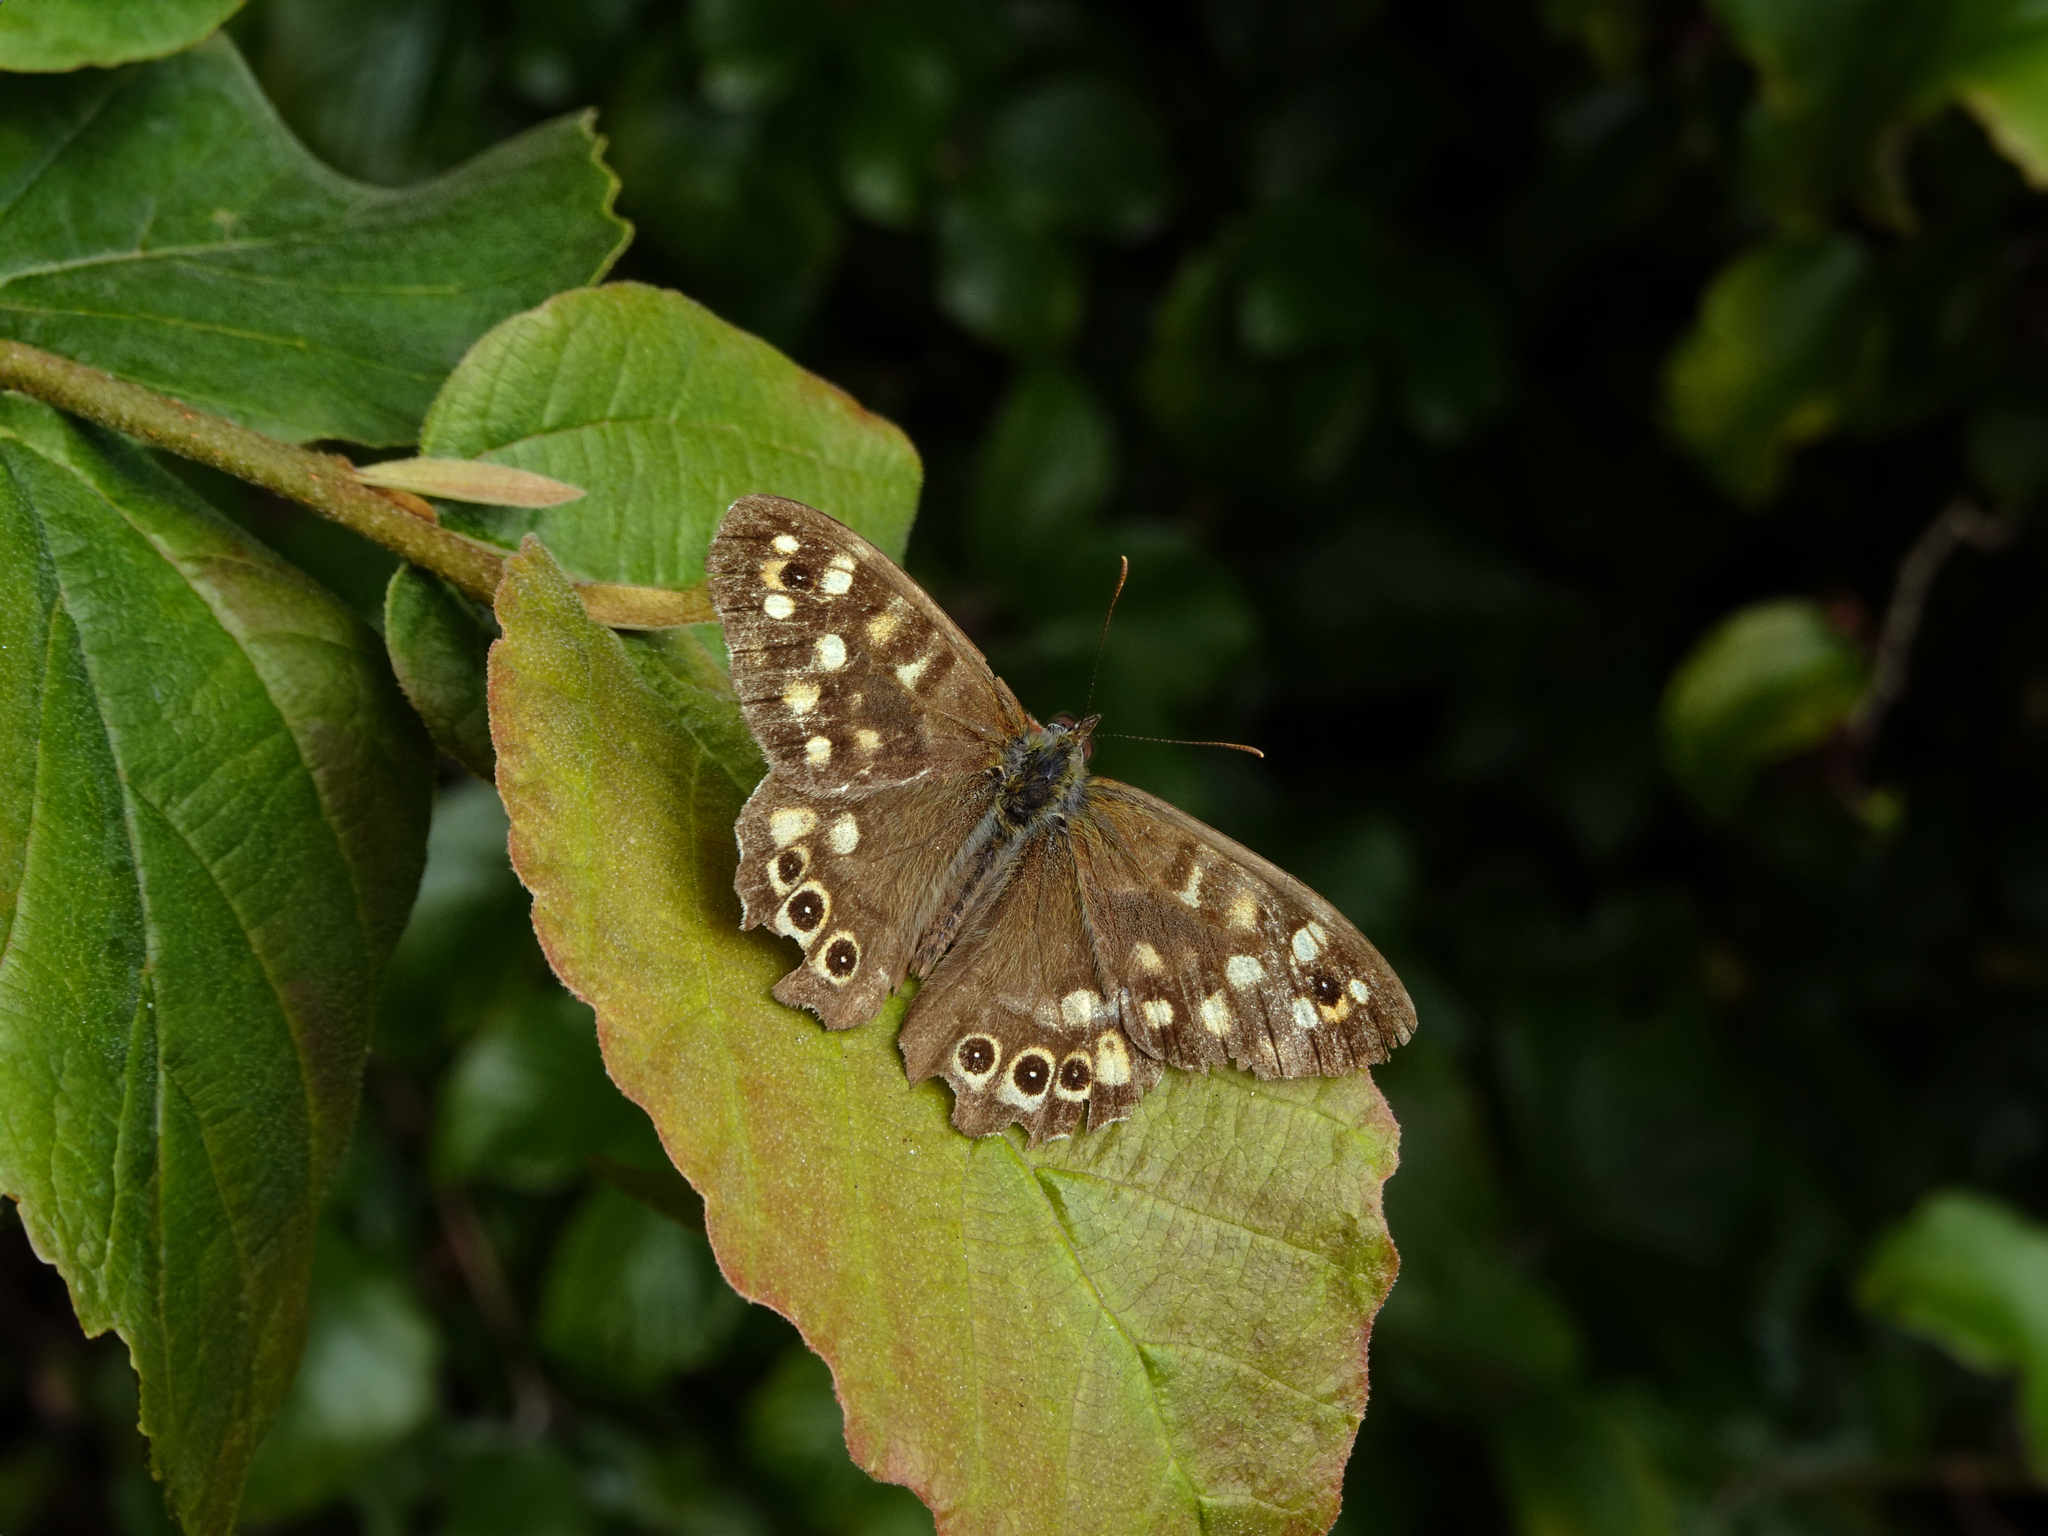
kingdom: Animalia
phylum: Arthropoda
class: Insecta
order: Lepidoptera
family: Nymphalidae
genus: Pararge
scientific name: Pararge aegeria
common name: Speckled wood
